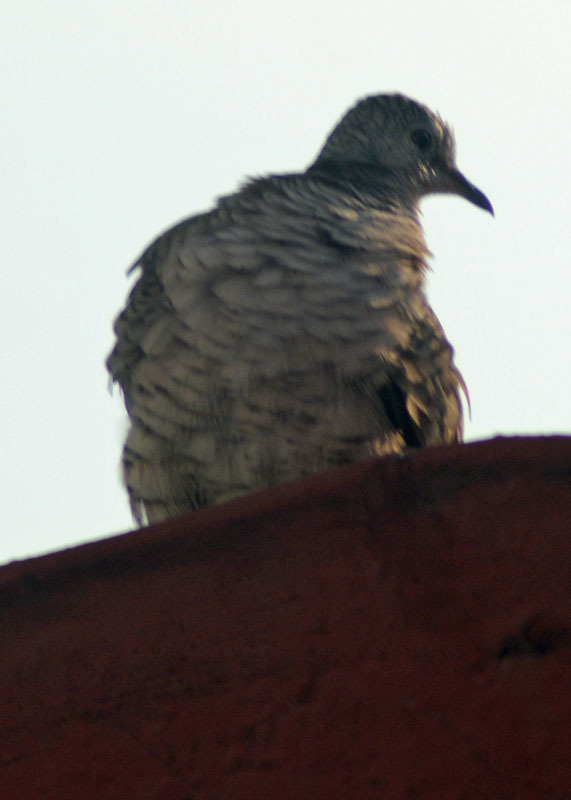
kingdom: Animalia
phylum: Chordata
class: Aves
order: Columbiformes
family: Columbidae
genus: Columbina
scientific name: Columbina inca
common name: Inca dove
